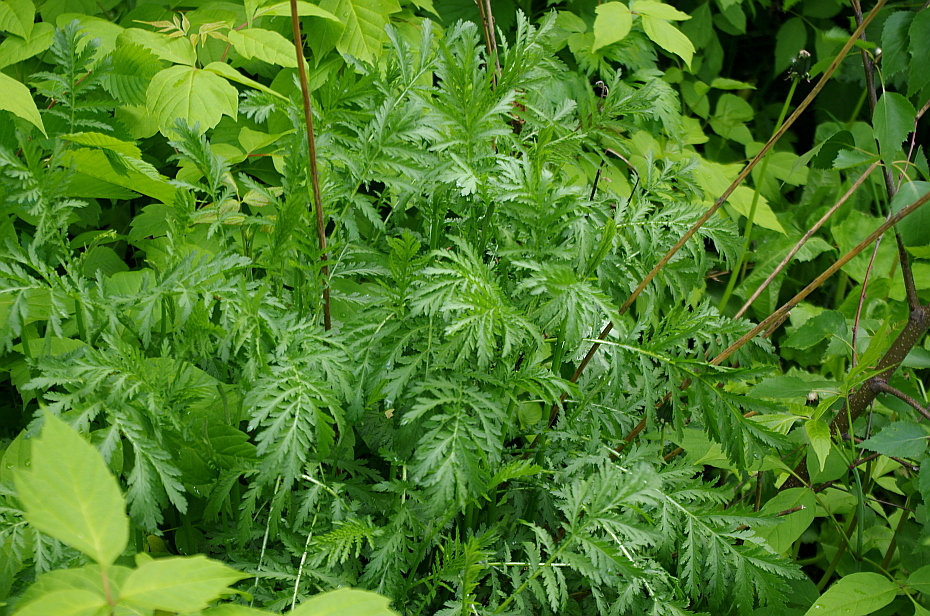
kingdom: Plantae
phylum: Tracheophyta
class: Magnoliopsida
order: Asterales
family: Asteraceae
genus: Tanacetum
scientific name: Tanacetum vulgare
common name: Common tansy
